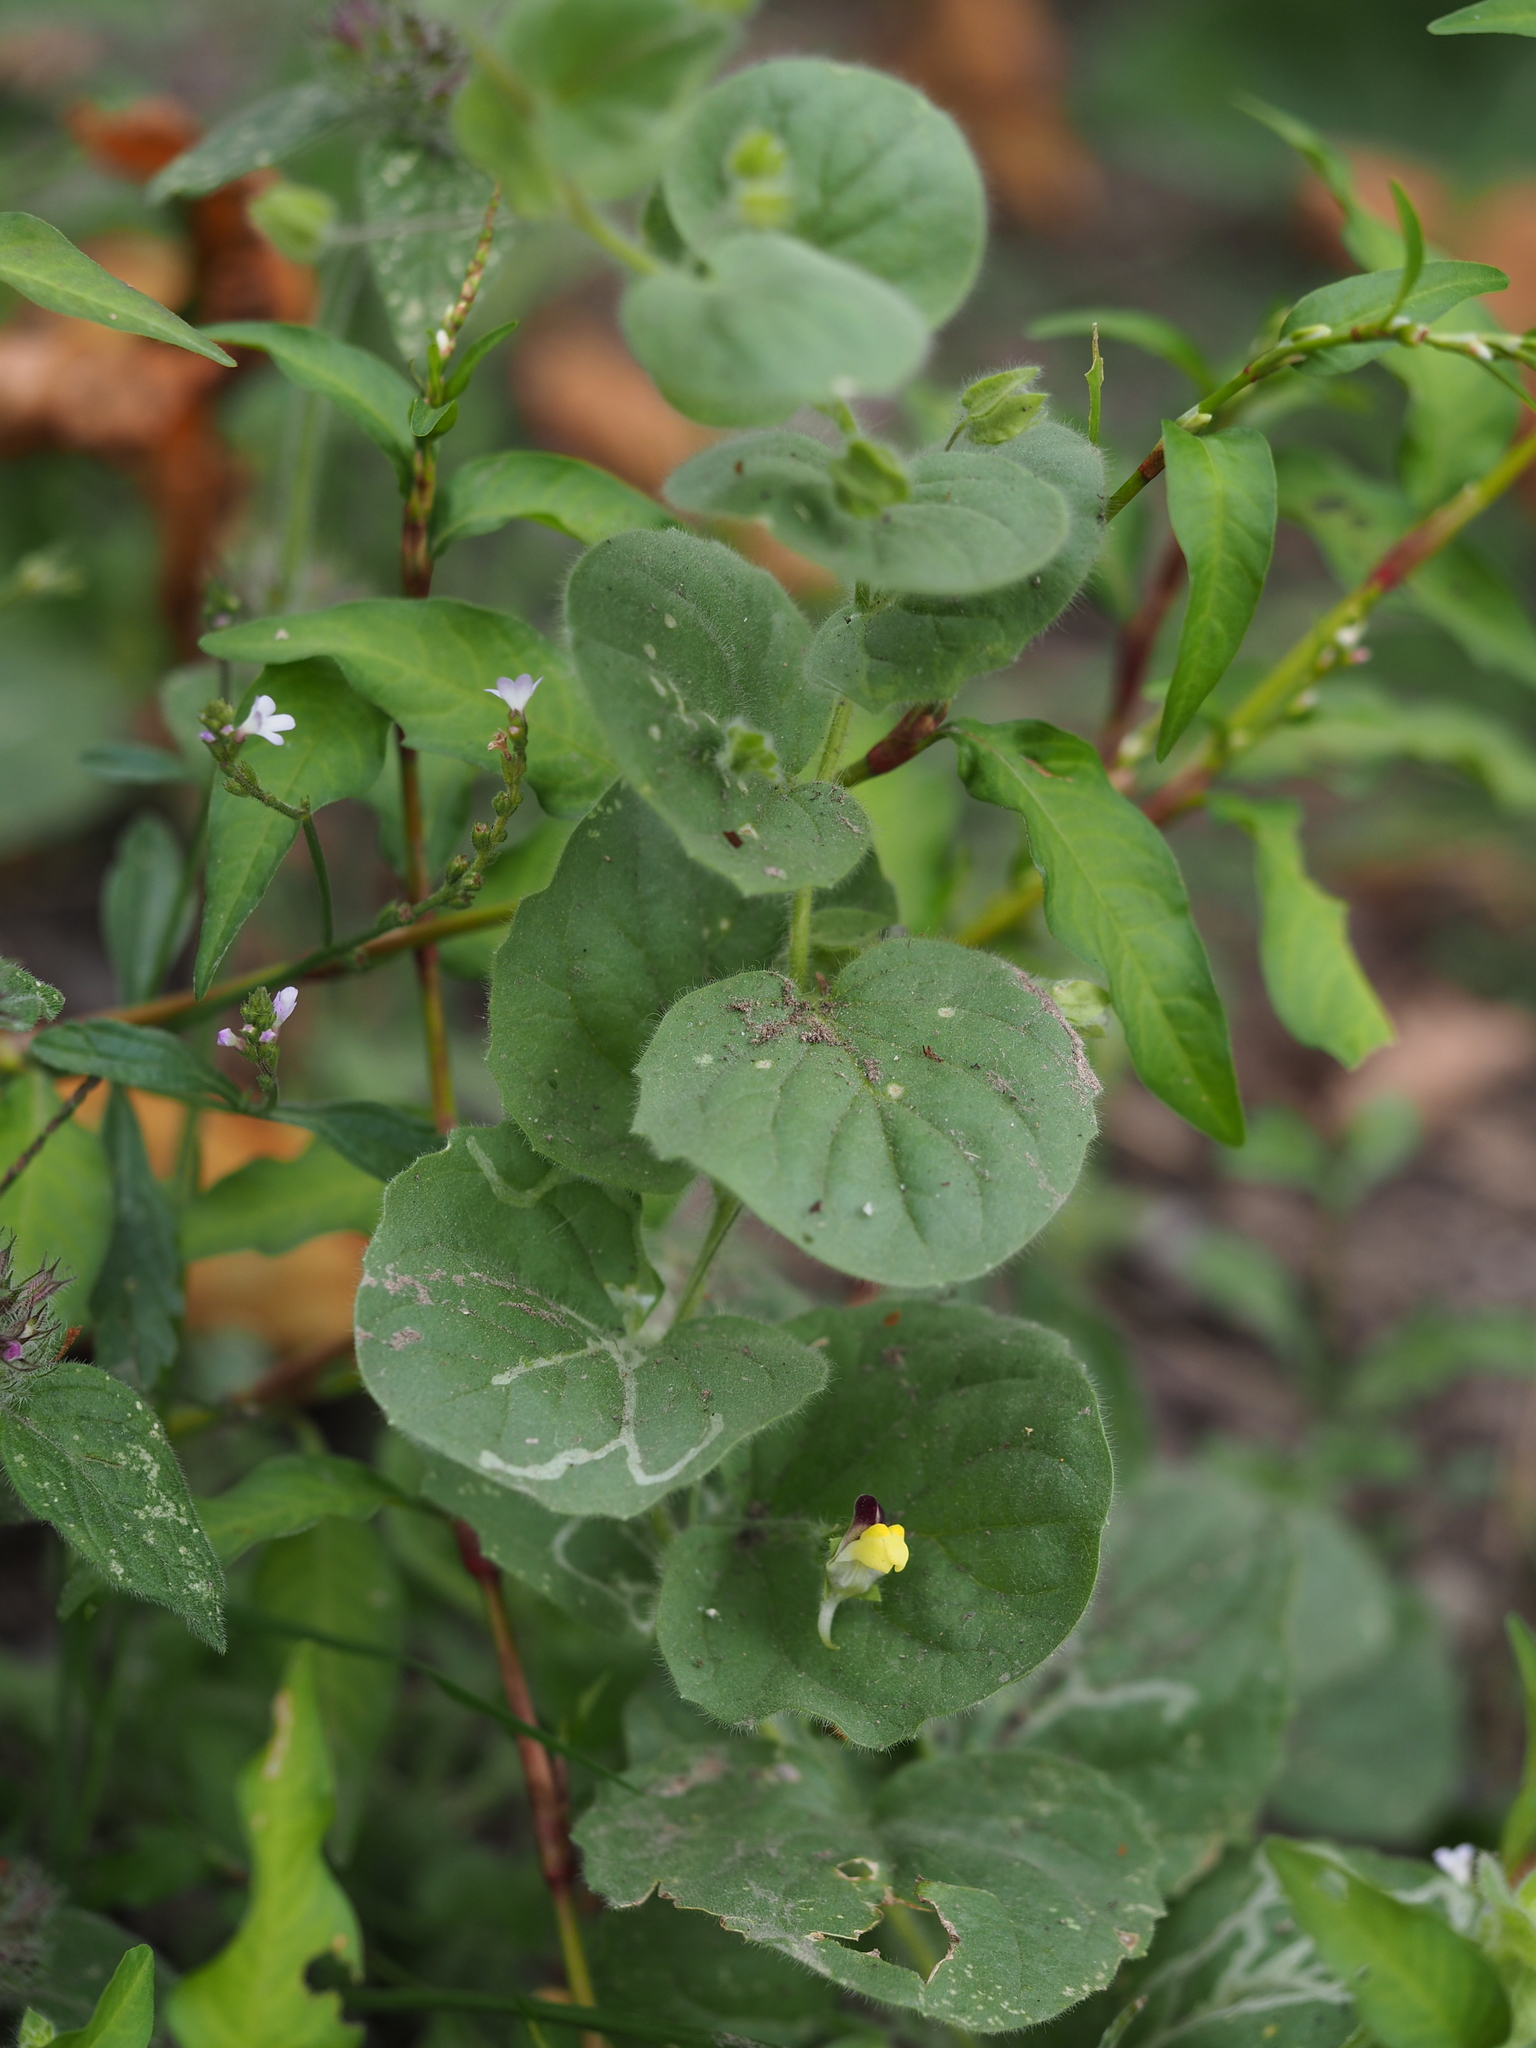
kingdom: Plantae
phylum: Tracheophyta
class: Magnoliopsida
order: Lamiales
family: Plantaginaceae
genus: Kickxia
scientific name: Kickxia spuria
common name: Round-leaved fluellen
